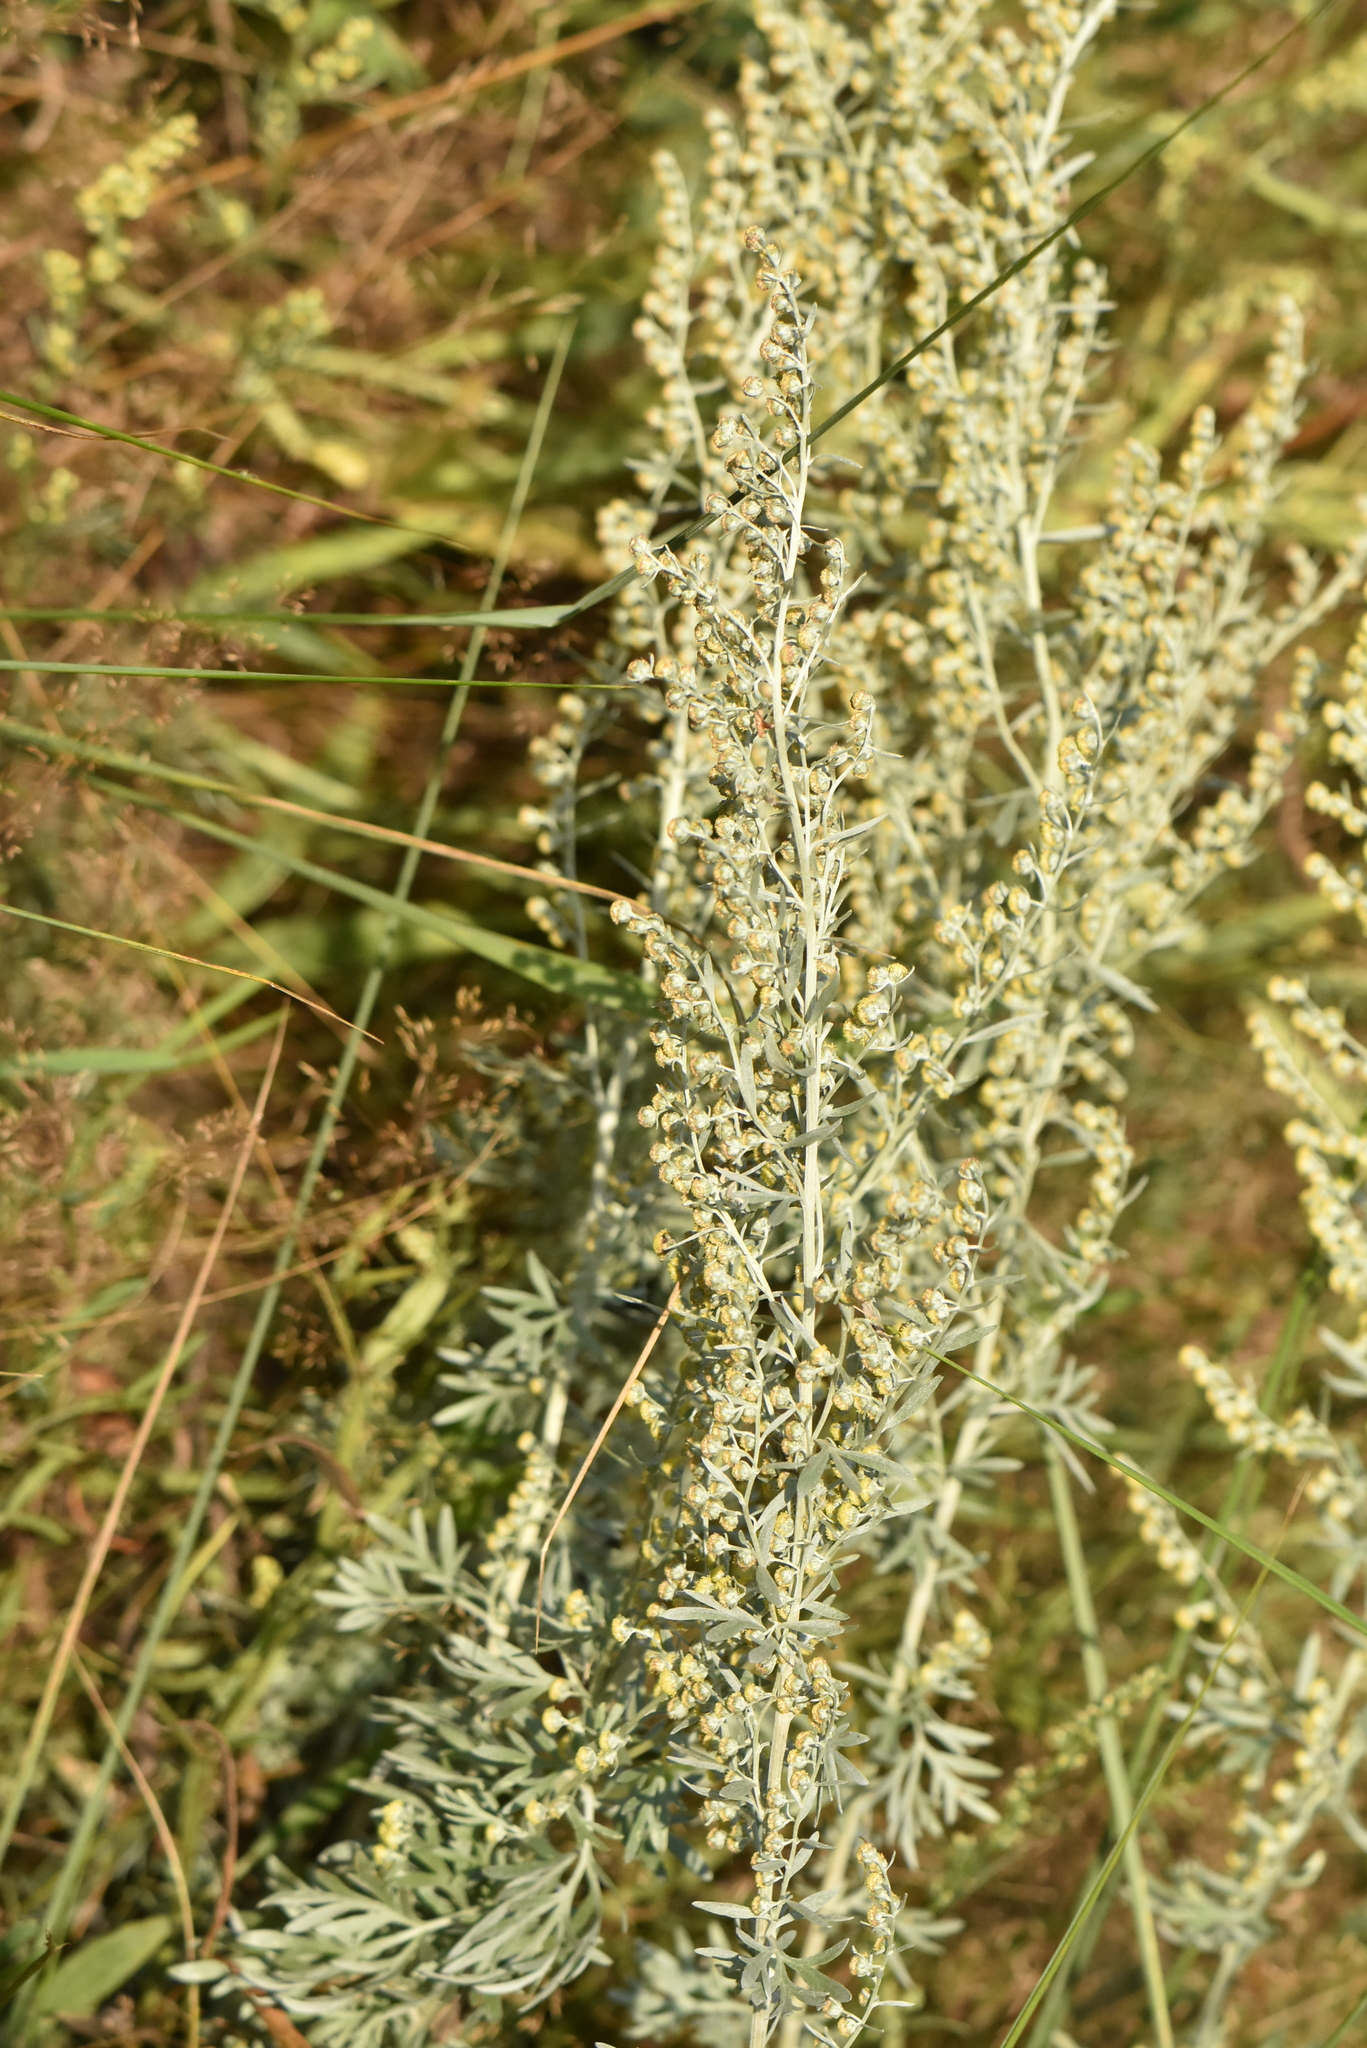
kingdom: Plantae
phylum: Tracheophyta
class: Magnoliopsida
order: Asterales
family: Asteraceae
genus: Artemisia
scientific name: Artemisia absinthium
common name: Wormwood
